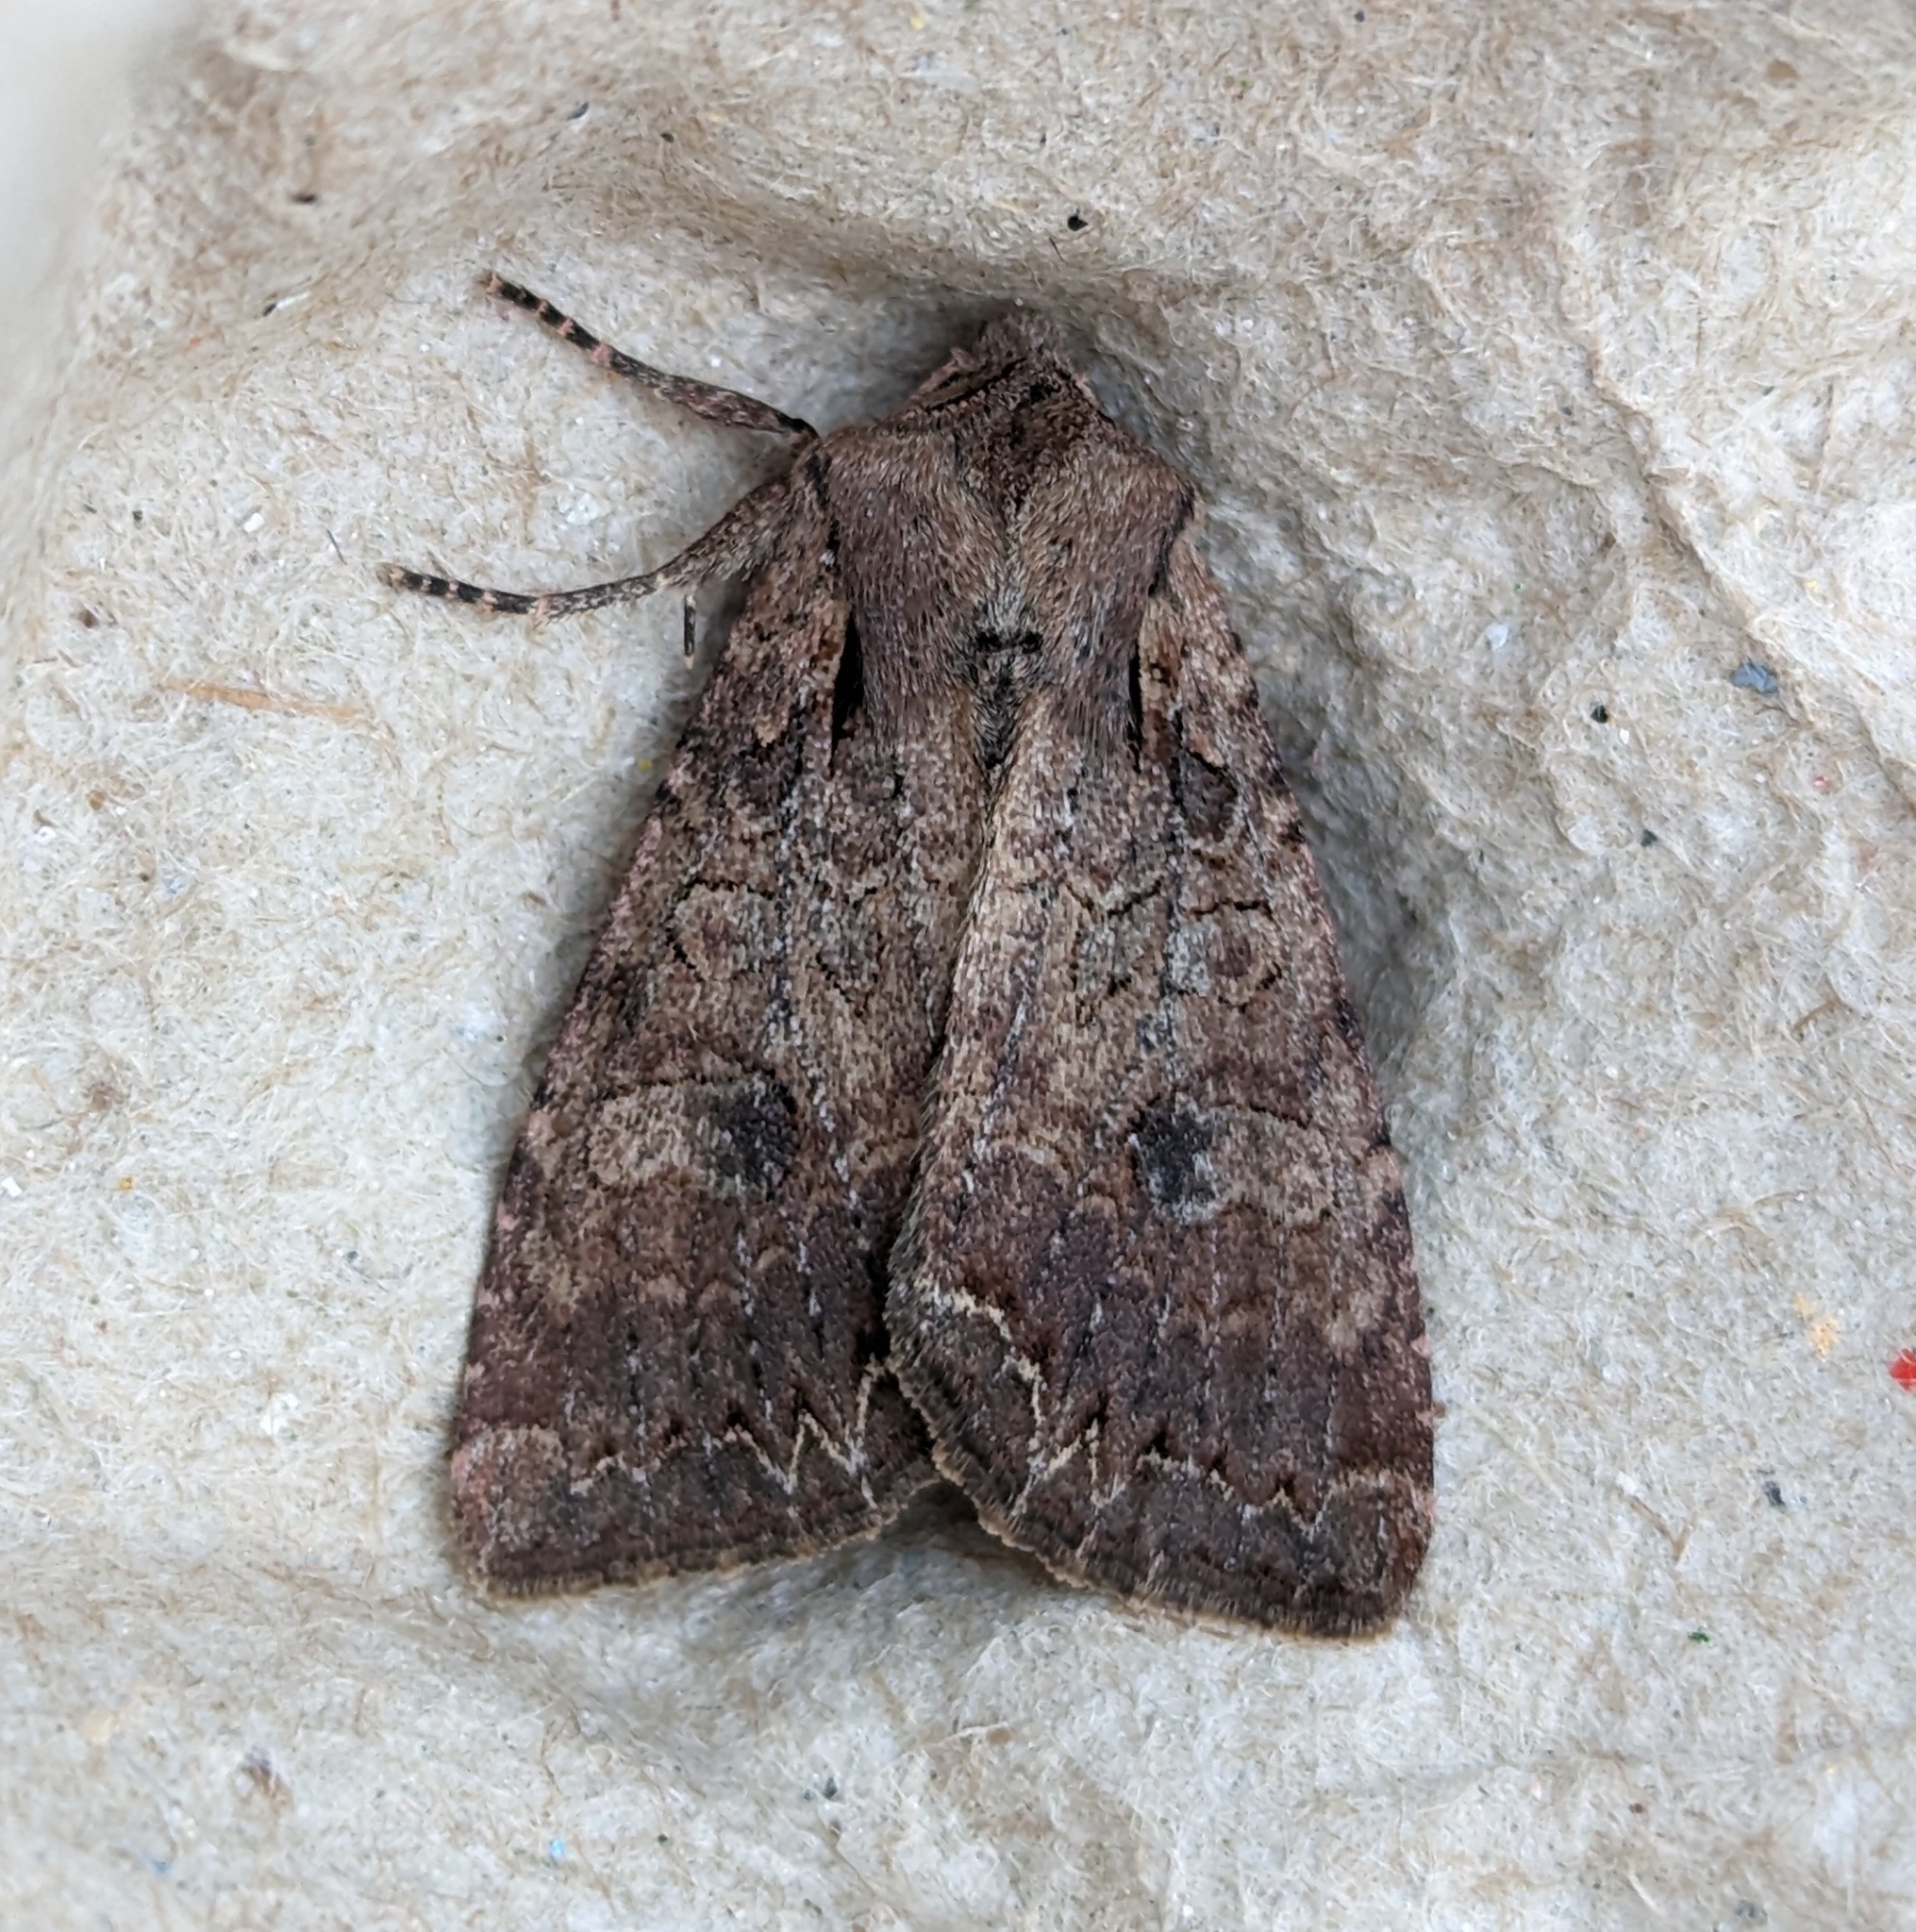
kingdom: Animalia
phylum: Arthropoda
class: Insecta
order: Lepidoptera
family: Noctuidae
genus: Lacanobia
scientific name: Lacanobia radix
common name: Garden arches moth
